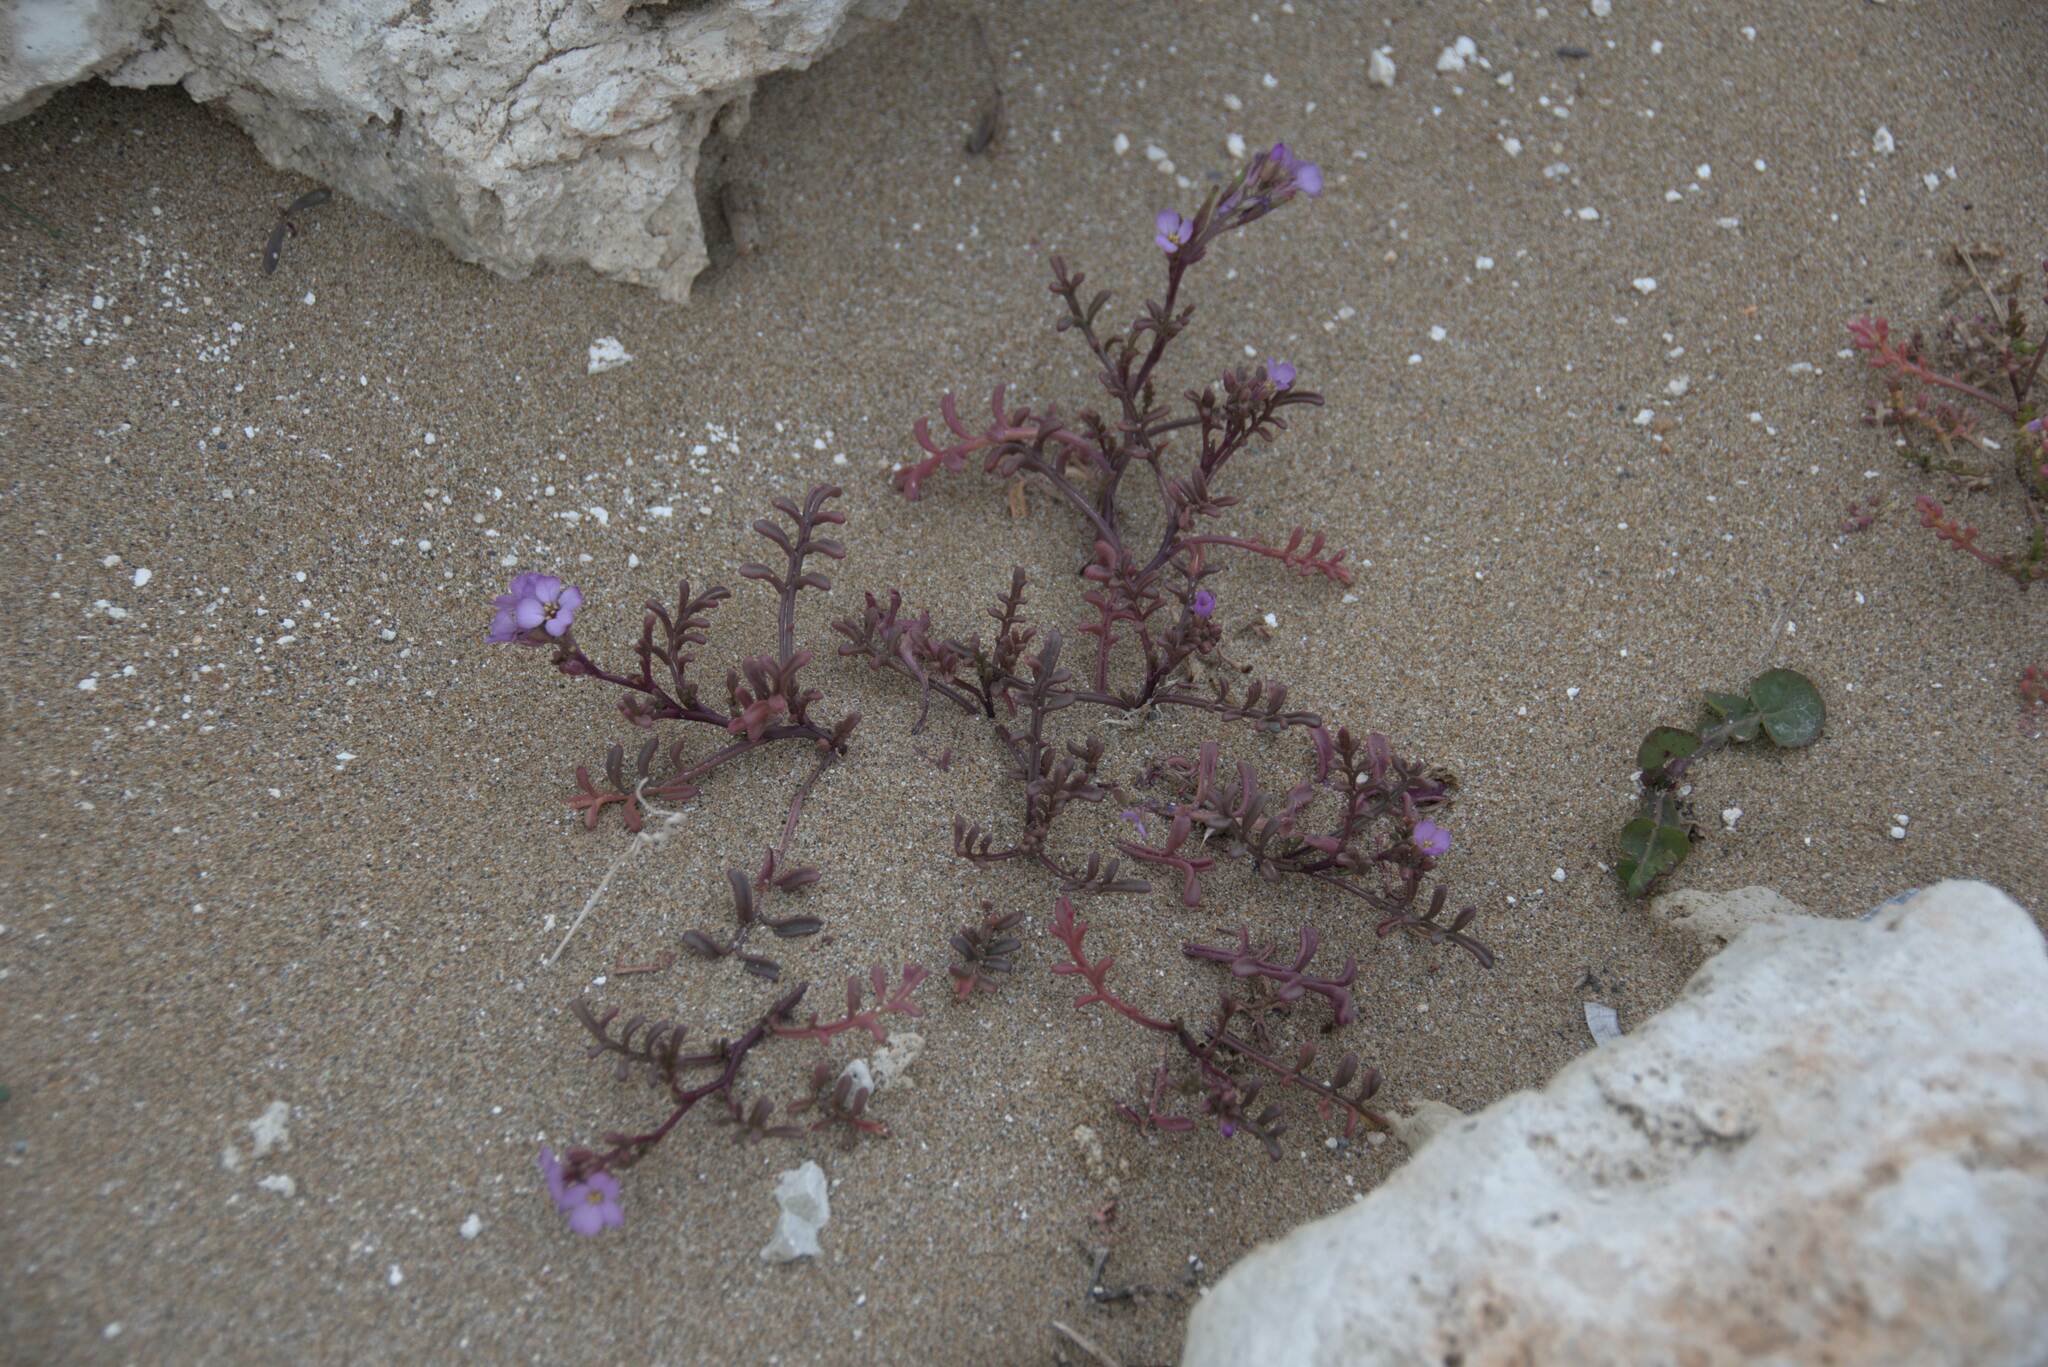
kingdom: Plantae
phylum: Tracheophyta
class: Magnoliopsida
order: Brassicales
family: Brassicaceae
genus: Cakile
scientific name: Cakile maritima
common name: Sea rocket
